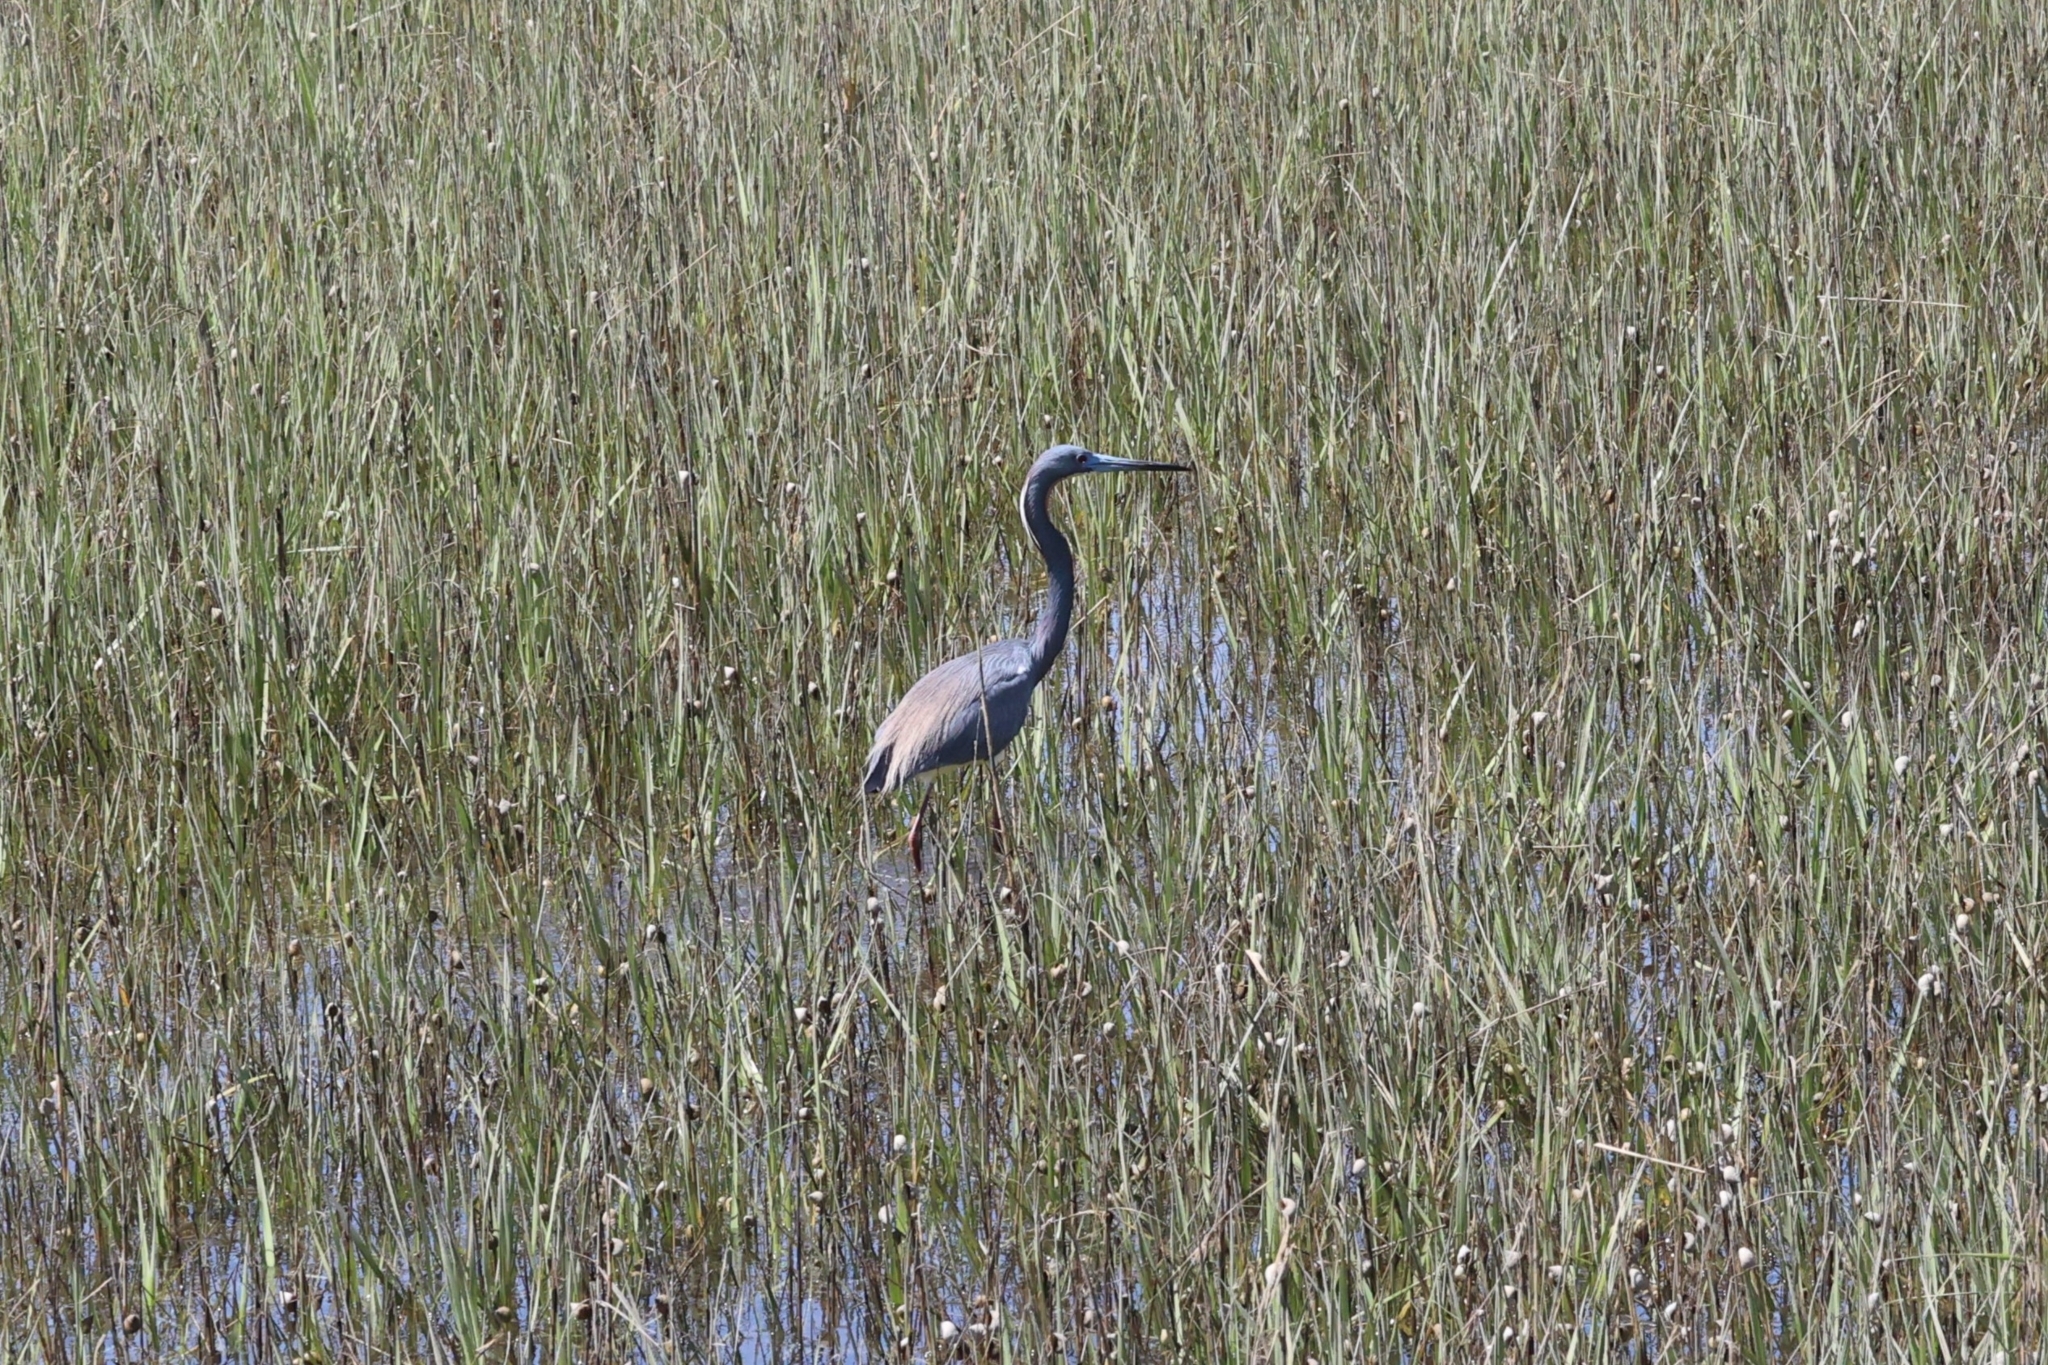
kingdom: Animalia
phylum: Chordata
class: Aves
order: Pelecaniformes
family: Ardeidae
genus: Egretta
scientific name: Egretta tricolor
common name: Tricolored heron
